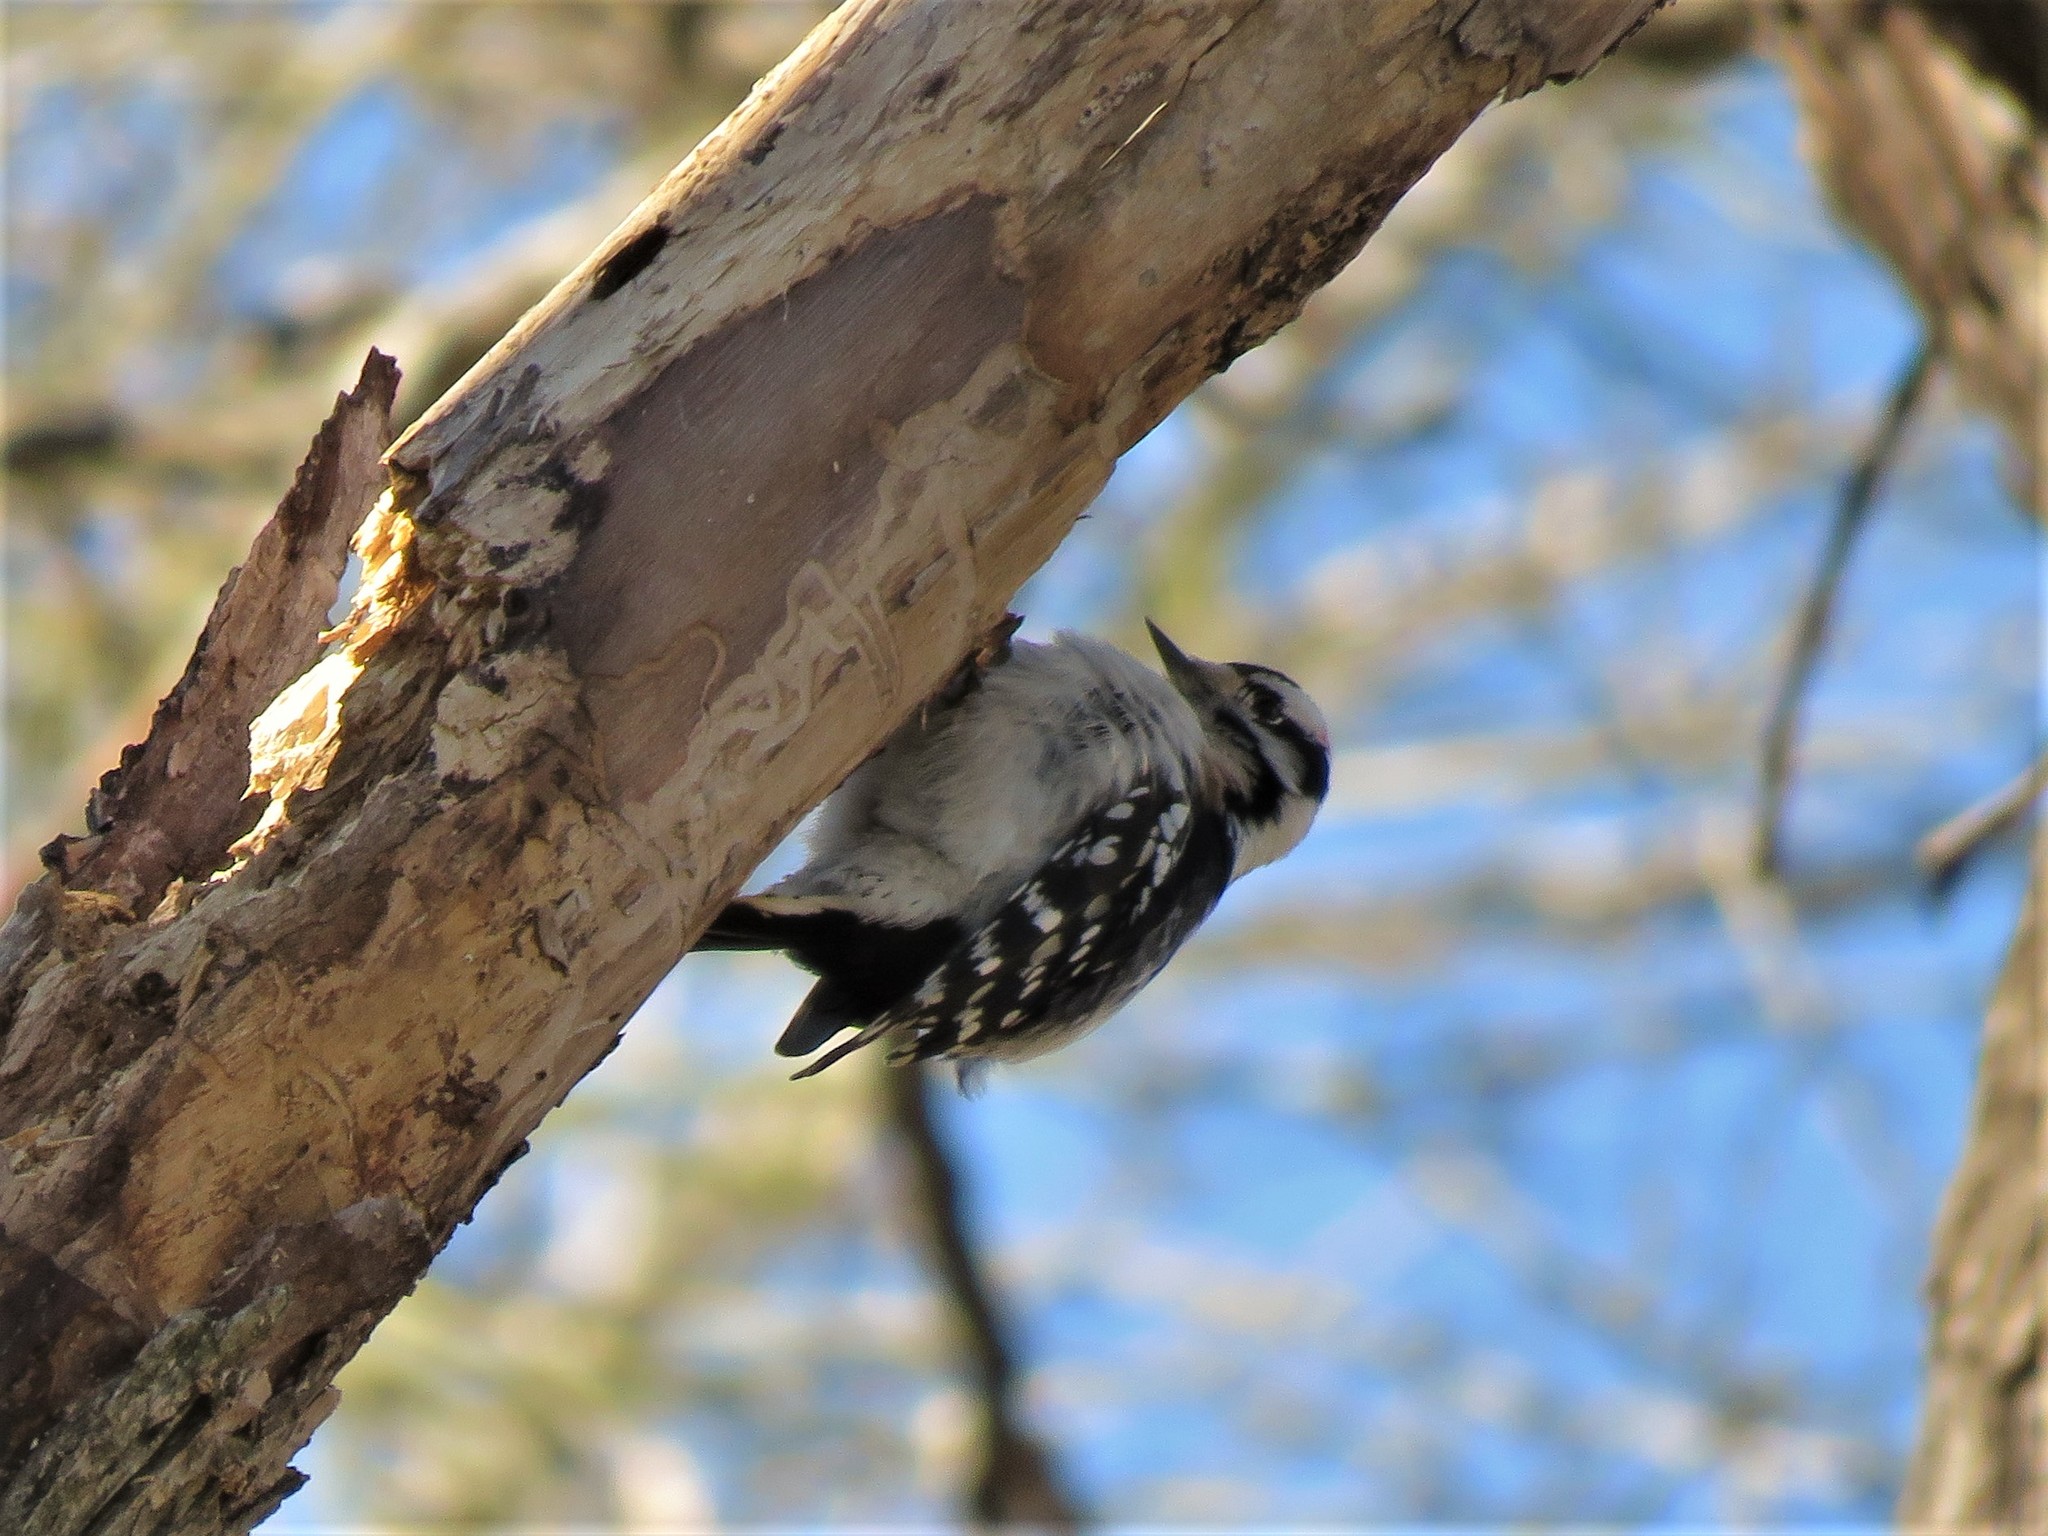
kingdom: Animalia
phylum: Chordata
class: Aves
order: Piciformes
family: Picidae
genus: Dryobates
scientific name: Dryobates pubescens
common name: Downy woodpecker
